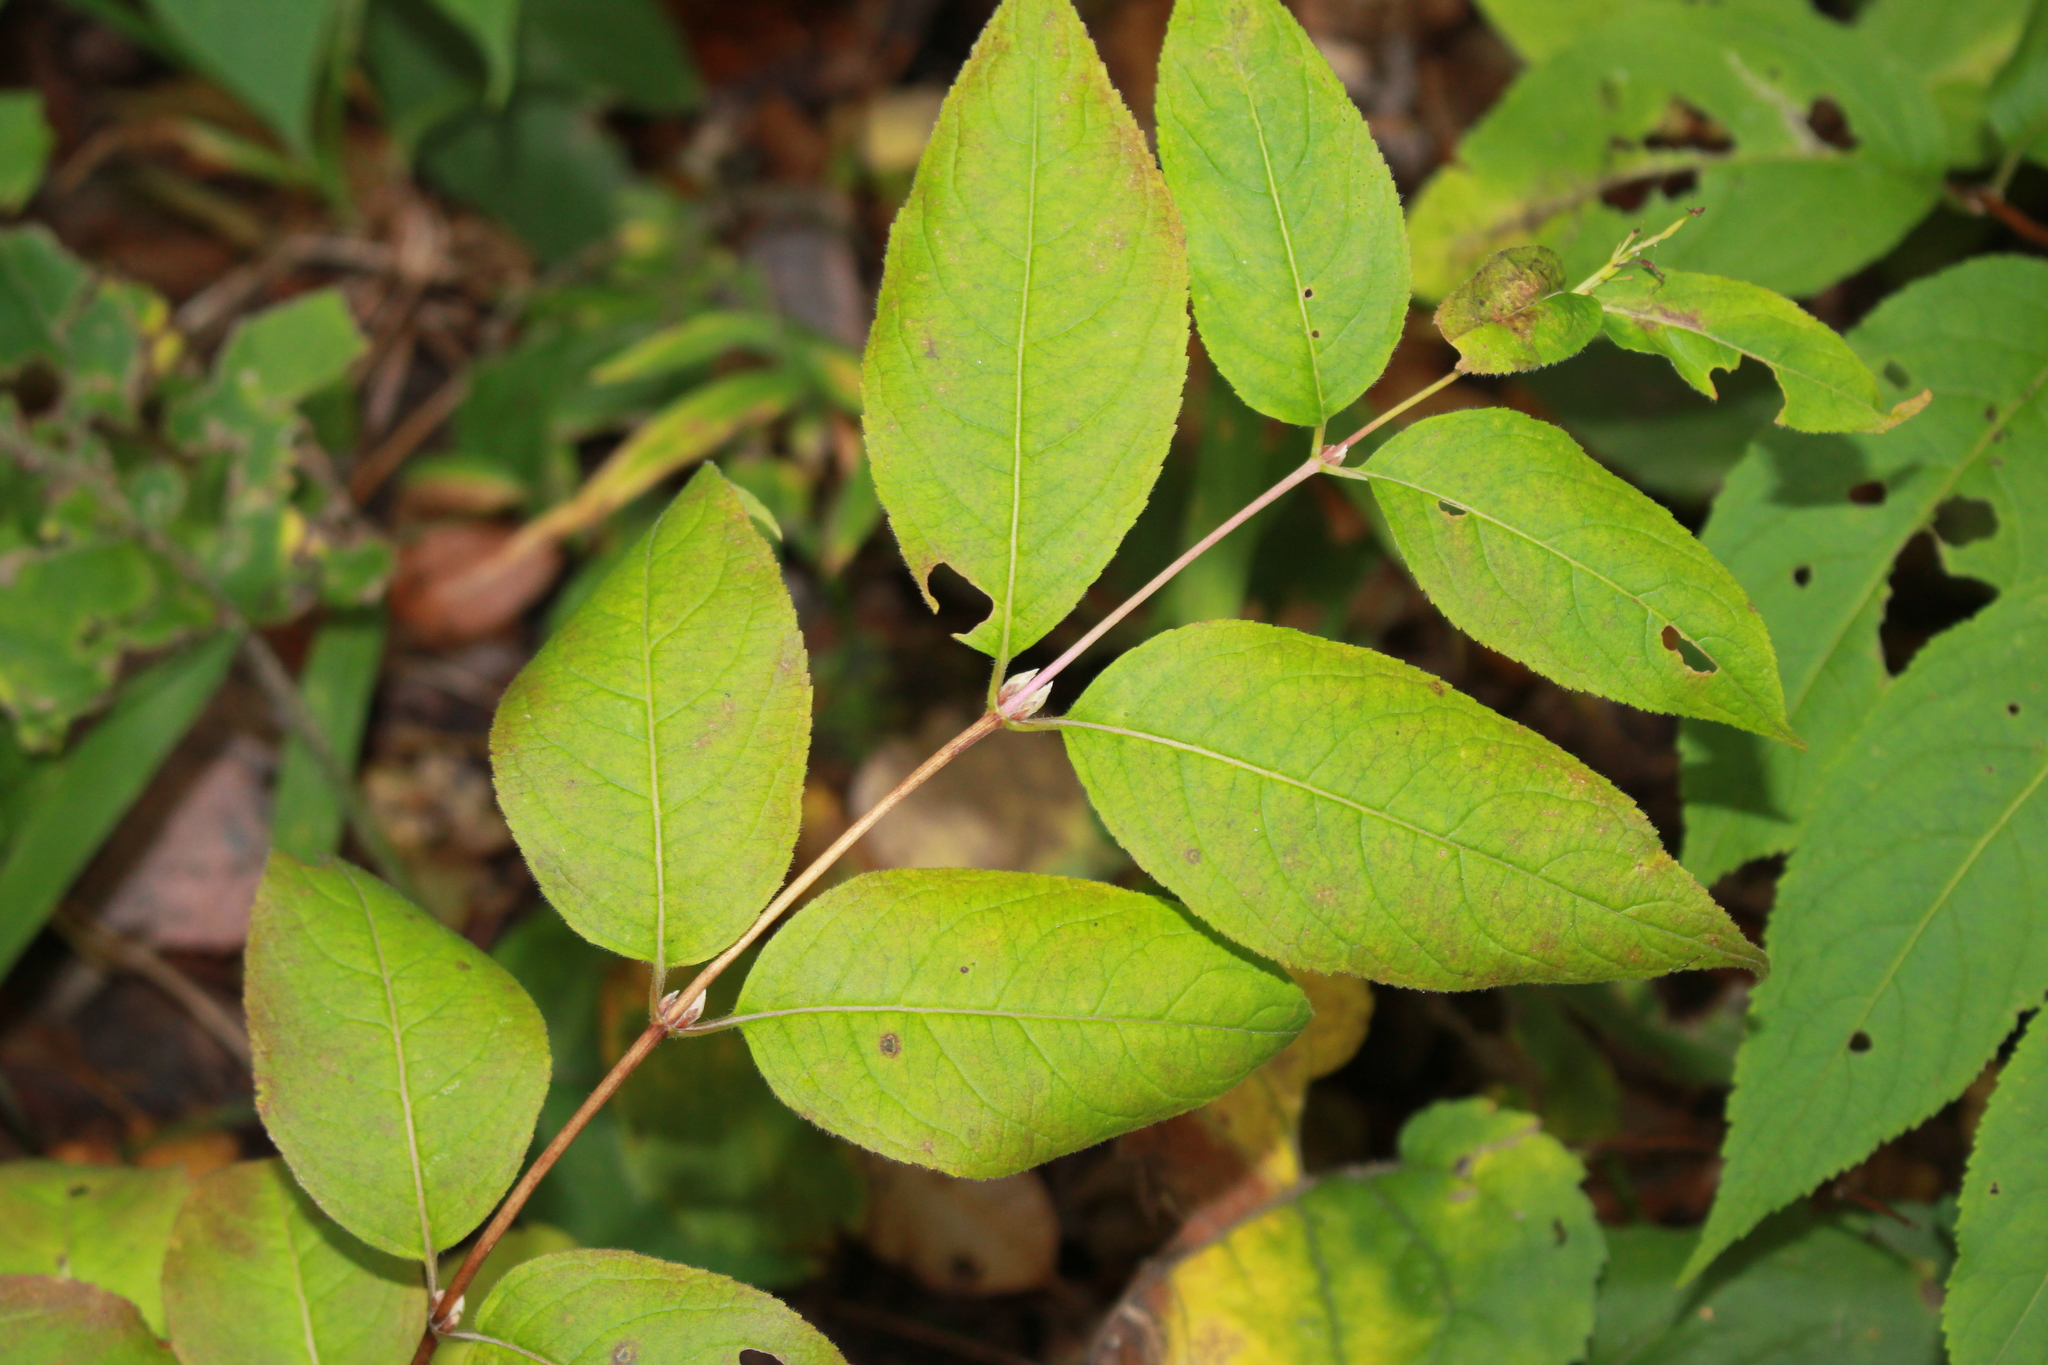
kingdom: Plantae
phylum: Tracheophyta
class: Magnoliopsida
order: Dipsacales
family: Caprifoliaceae
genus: Diervilla
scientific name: Diervilla lonicera
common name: Bush-honeysuckle
